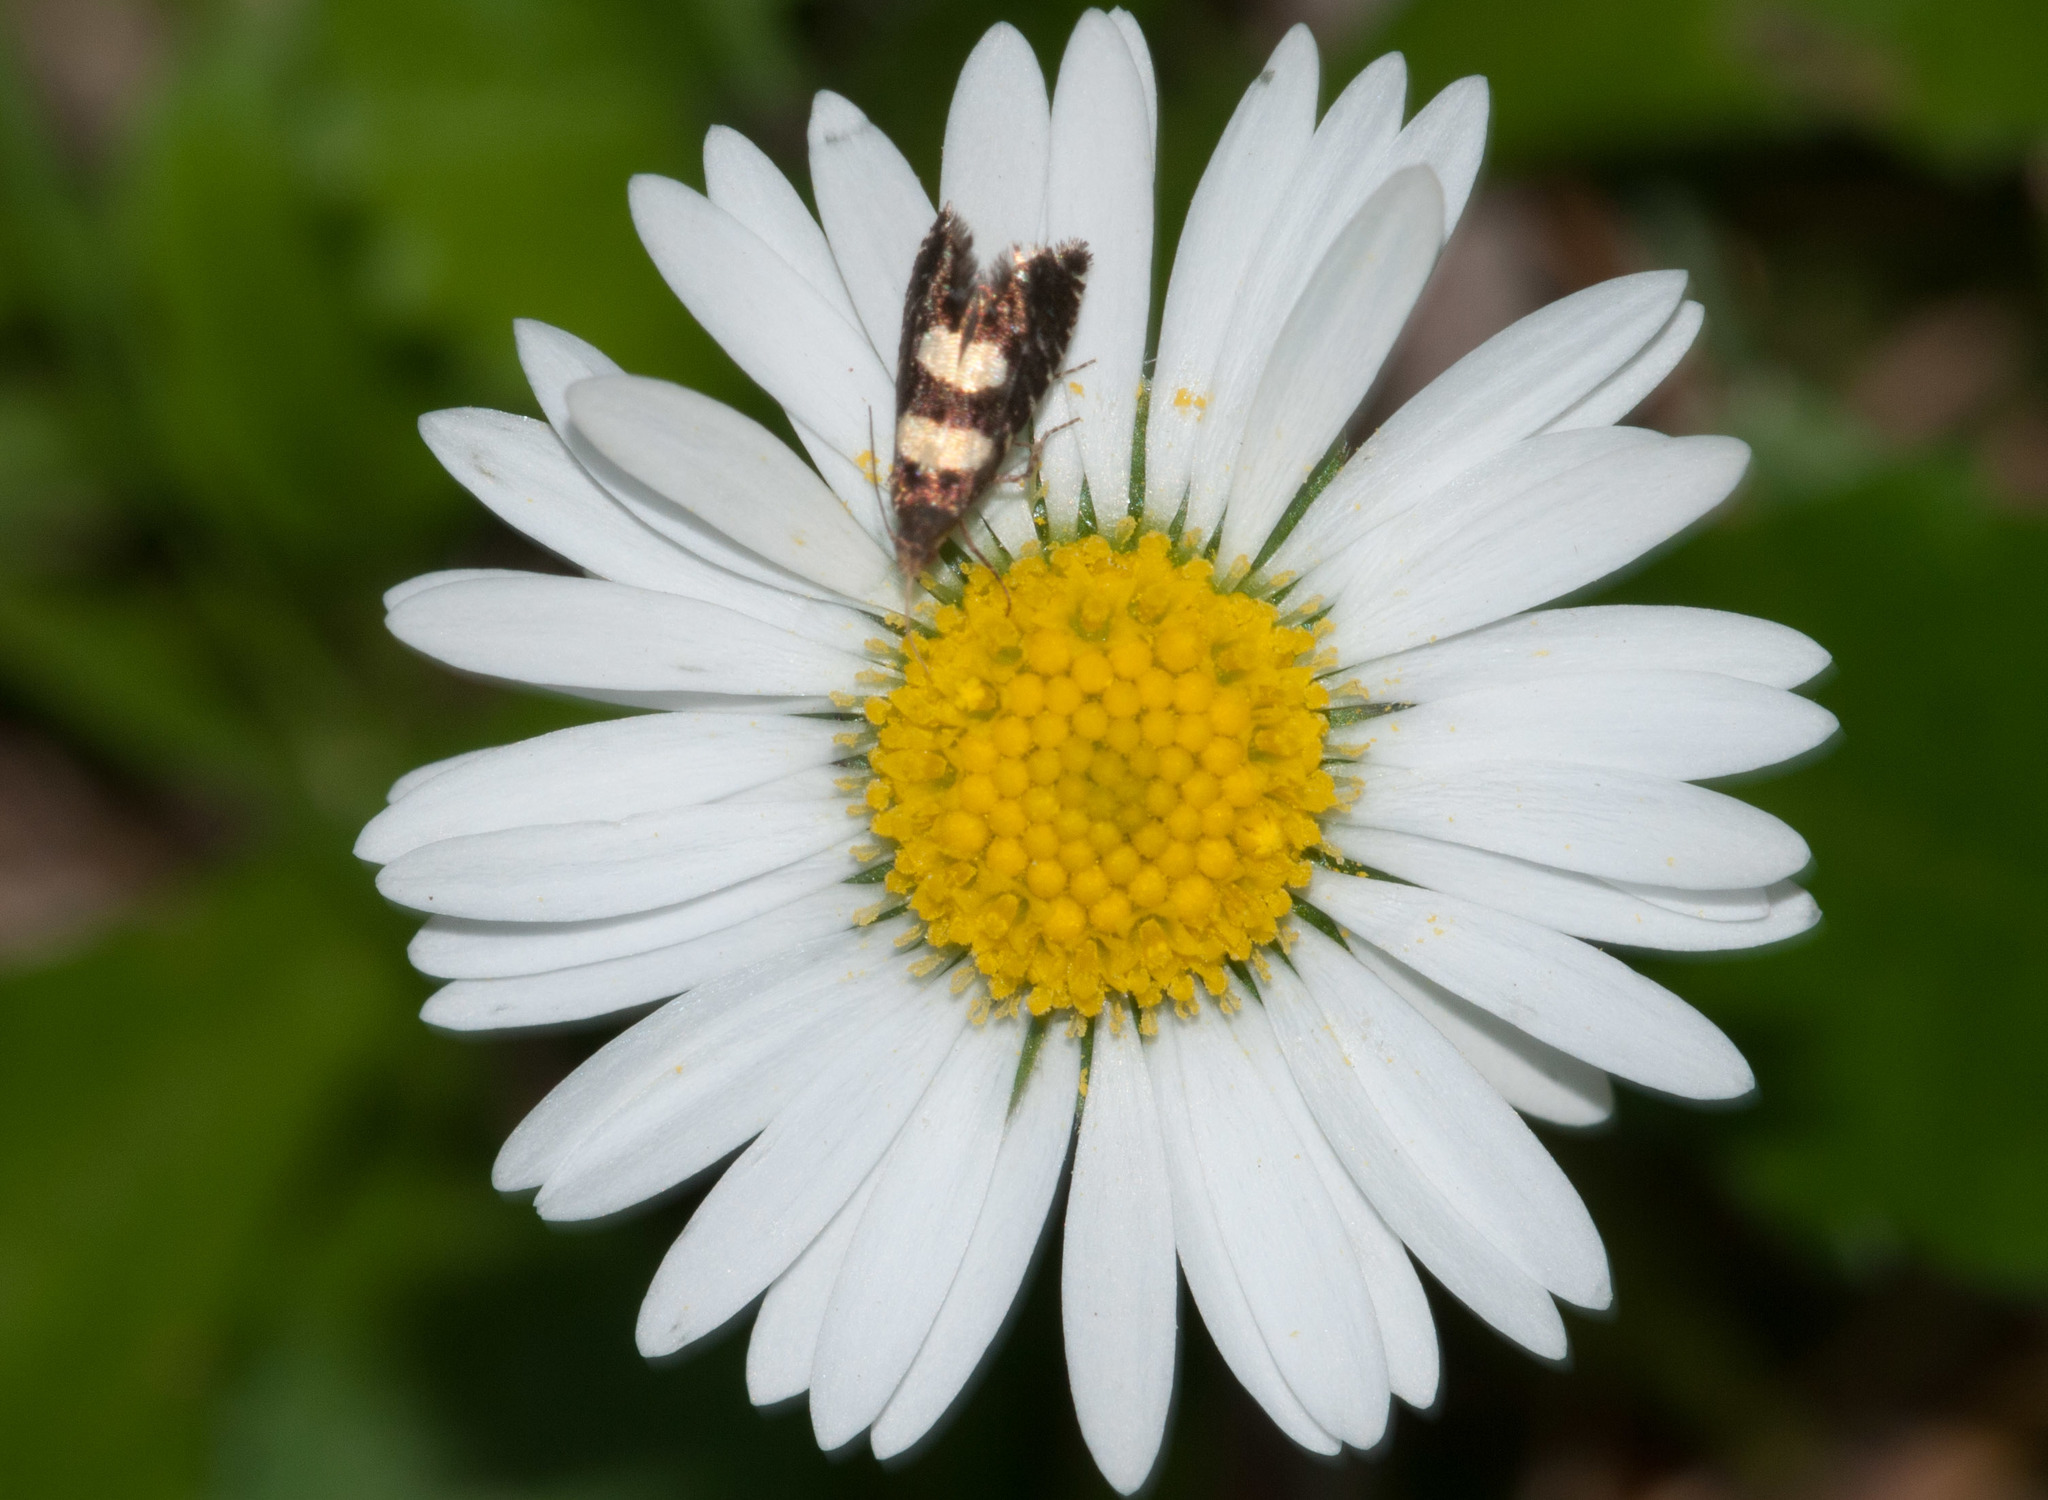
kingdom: Animalia
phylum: Arthropoda
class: Insecta
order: Lepidoptera
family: Glyphipterigidae
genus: Glyphipterix
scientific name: Glyphipterix chrysoplanetis
